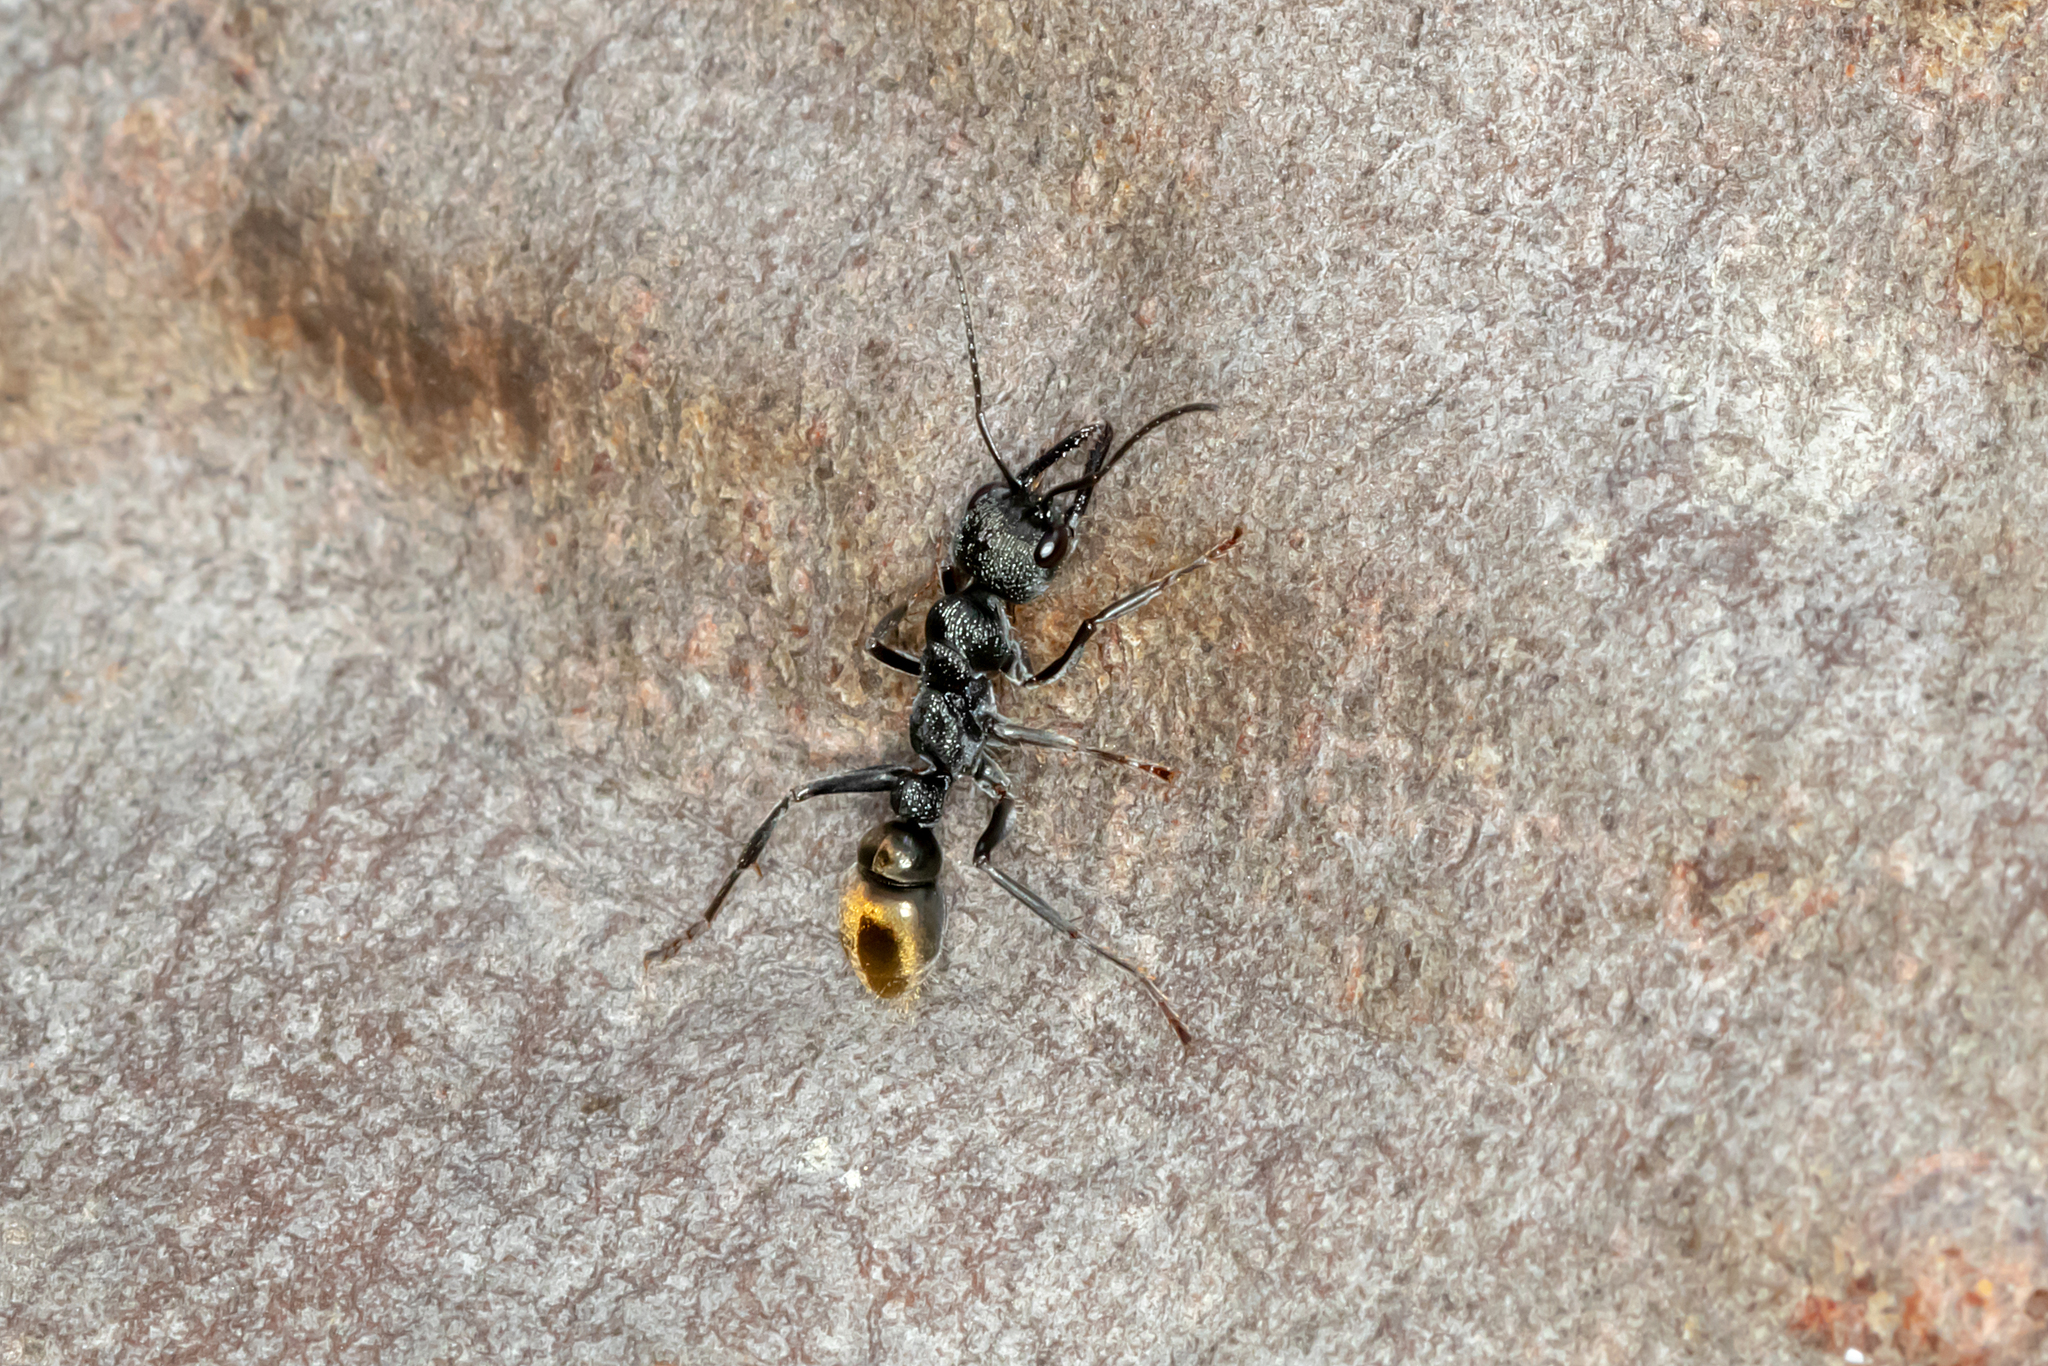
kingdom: Animalia
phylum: Arthropoda
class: Insecta
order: Hymenoptera
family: Formicidae
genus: Myrmecia
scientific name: Myrmecia piliventris
